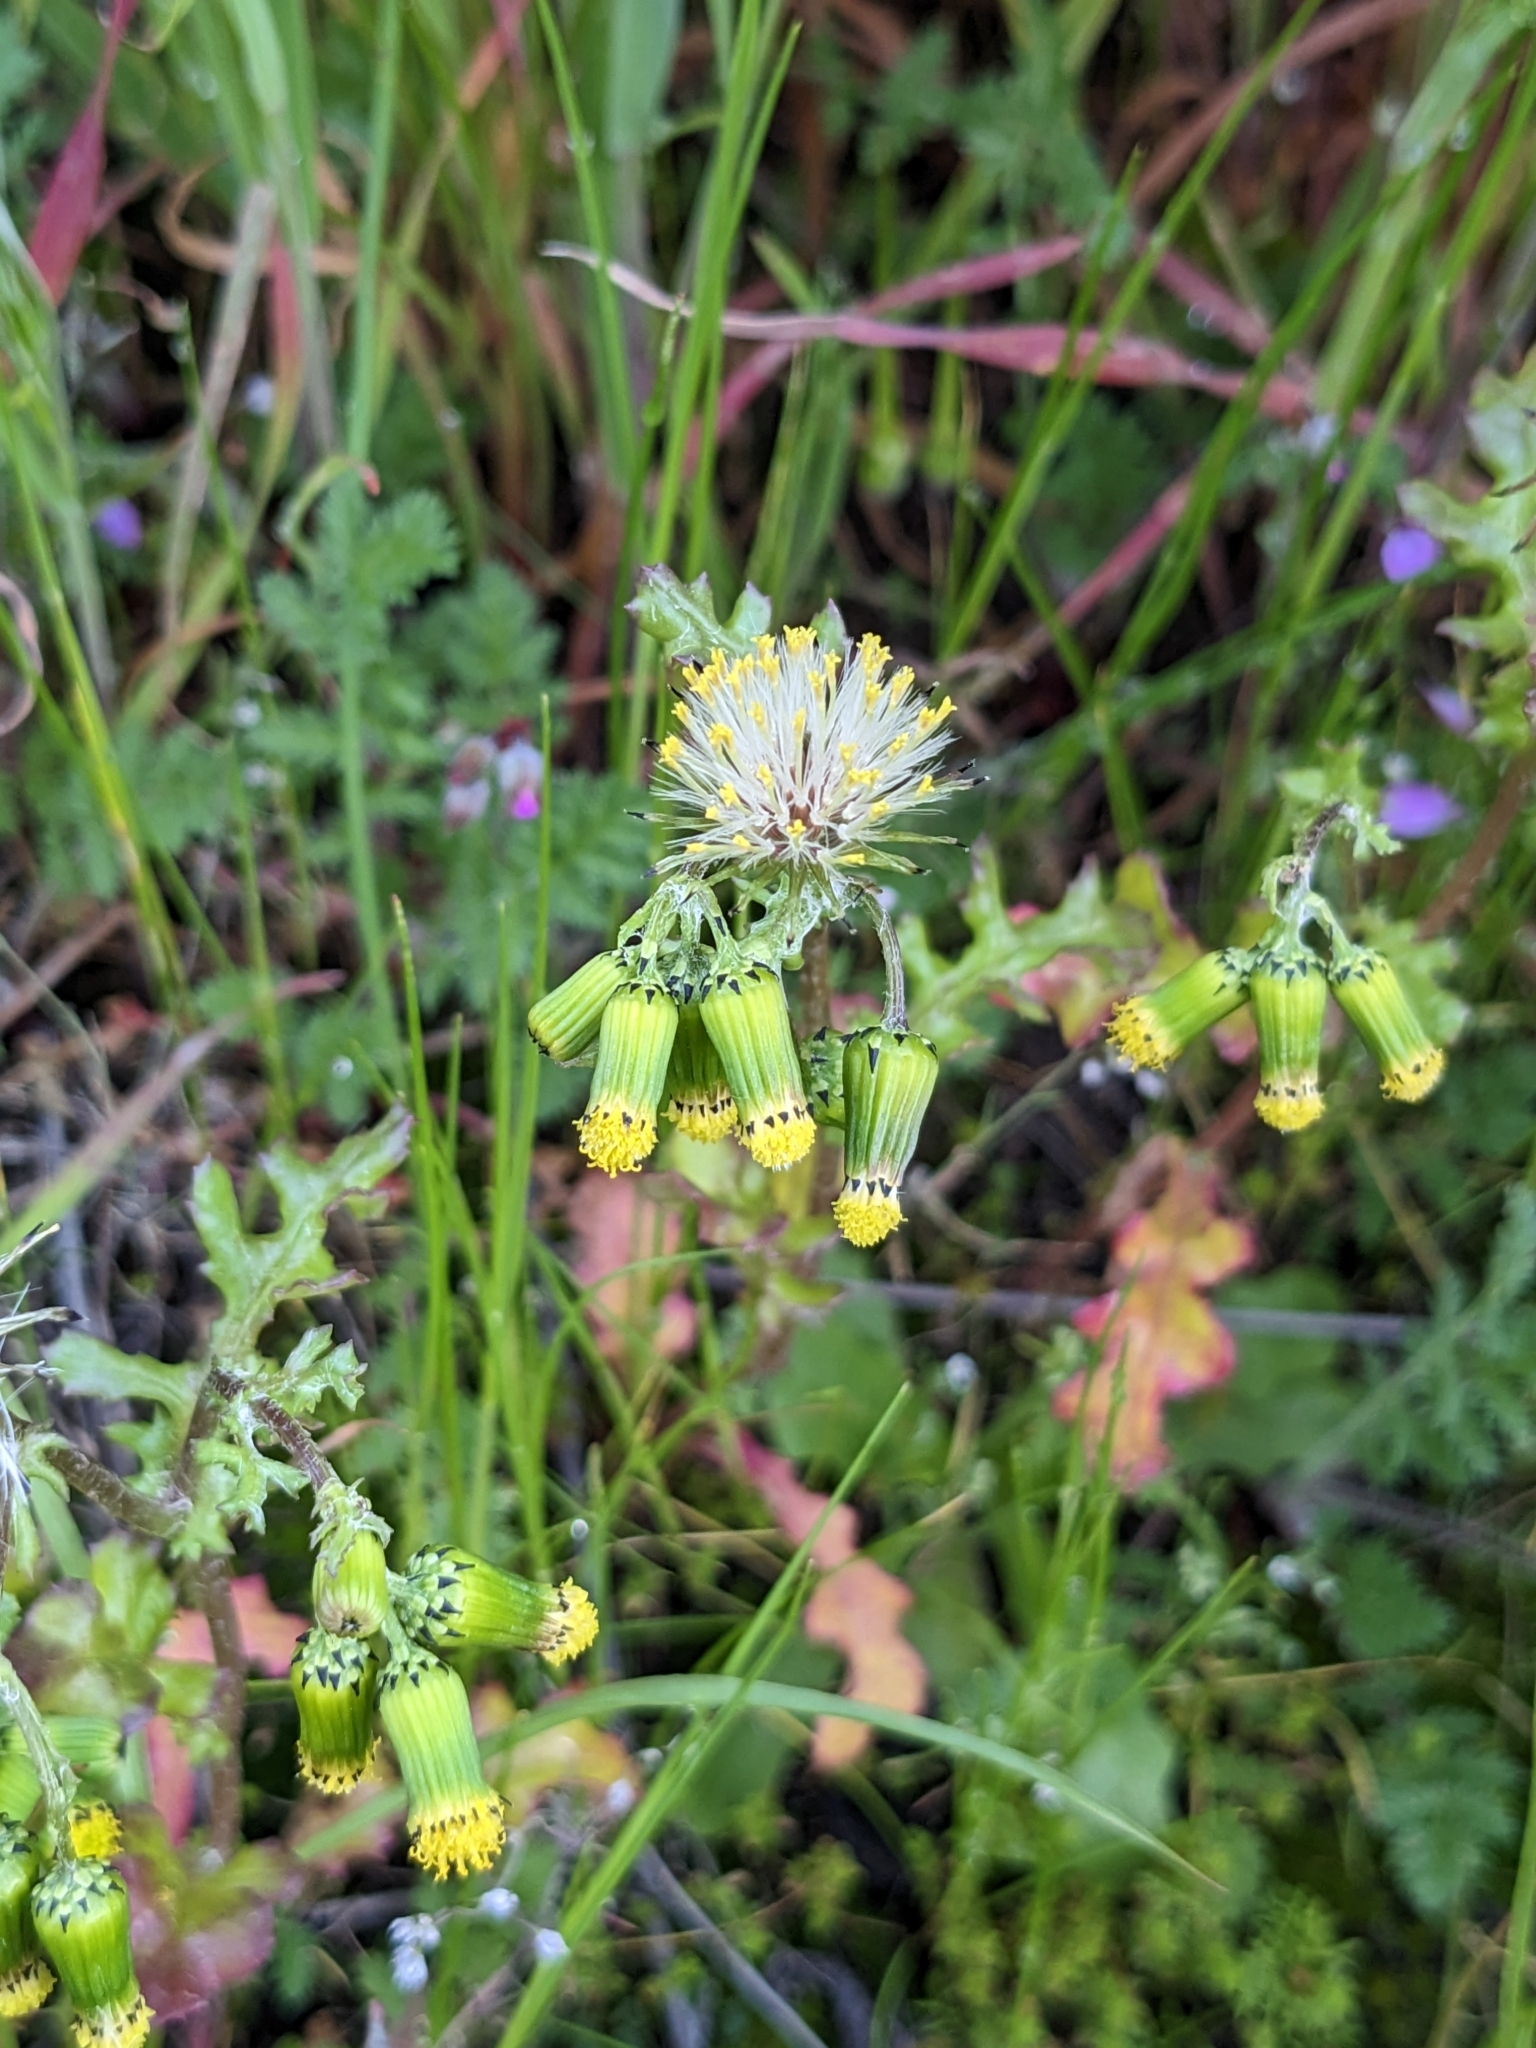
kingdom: Plantae
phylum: Tracheophyta
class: Magnoliopsida
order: Asterales
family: Asteraceae
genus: Senecio
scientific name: Senecio vulgaris
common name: Old-man-in-the-spring
